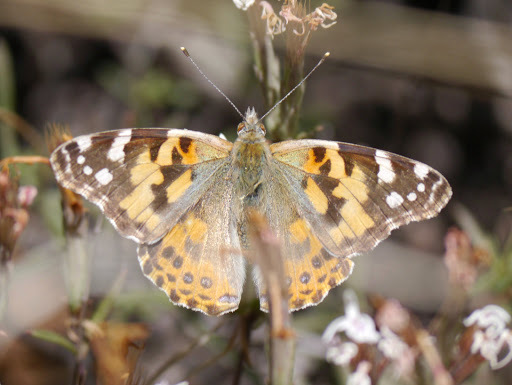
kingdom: Animalia
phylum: Arthropoda
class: Insecta
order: Lepidoptera
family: Nymphalidae
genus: Vanessa
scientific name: Vanessa cardui
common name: Painted lady
